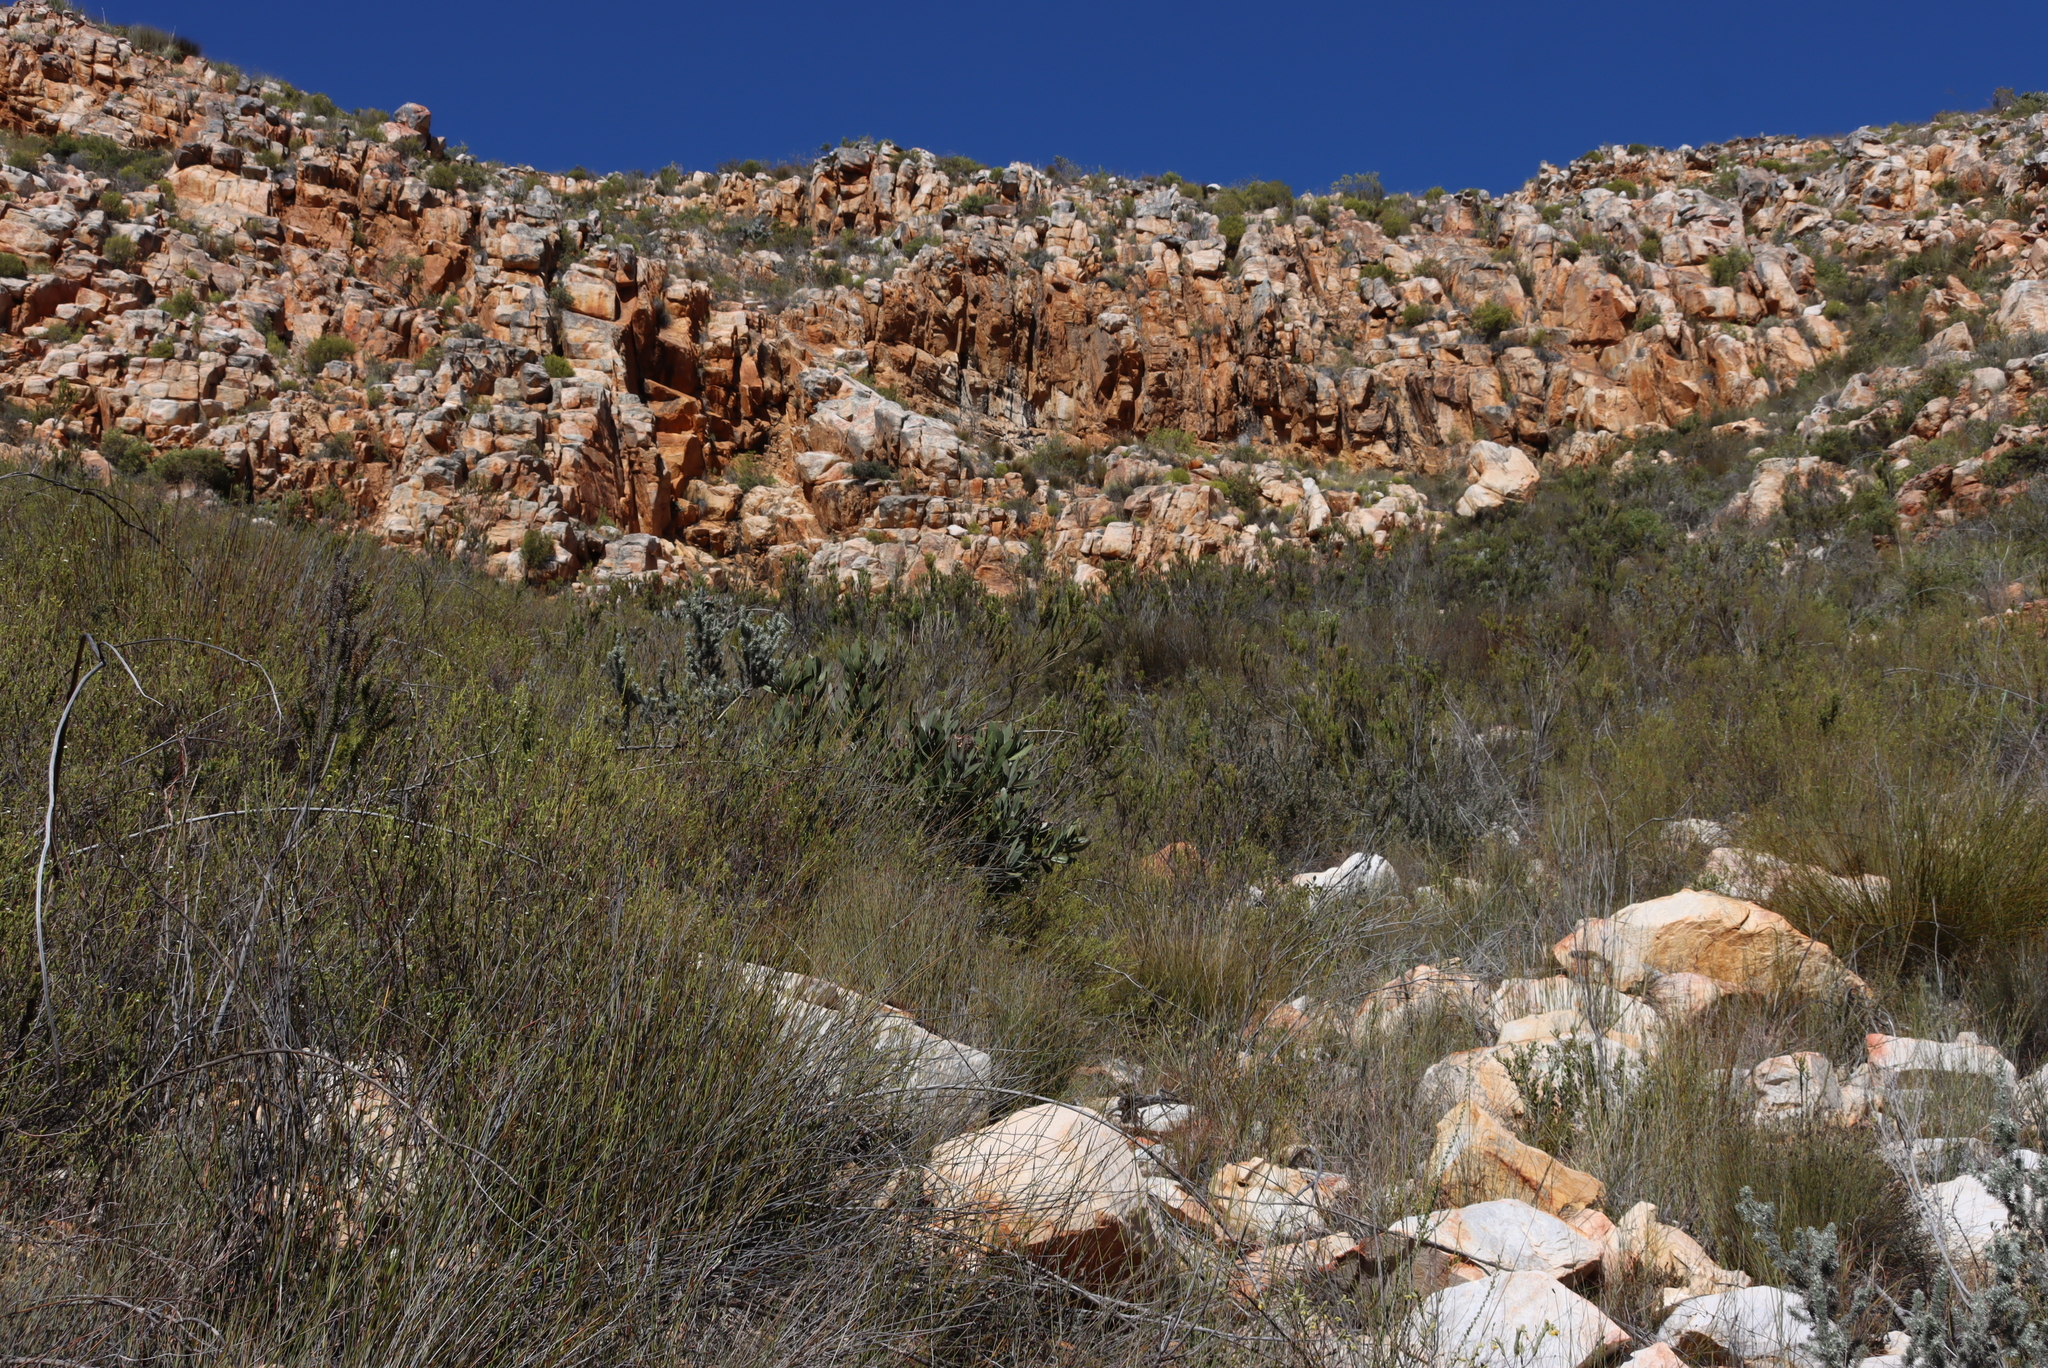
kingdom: Plantae
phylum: Tracheophyta
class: Magnoliopsida
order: Proteales
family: Proteaceae
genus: Protea
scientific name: Protea lorifolia
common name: Strap-leaved protea
